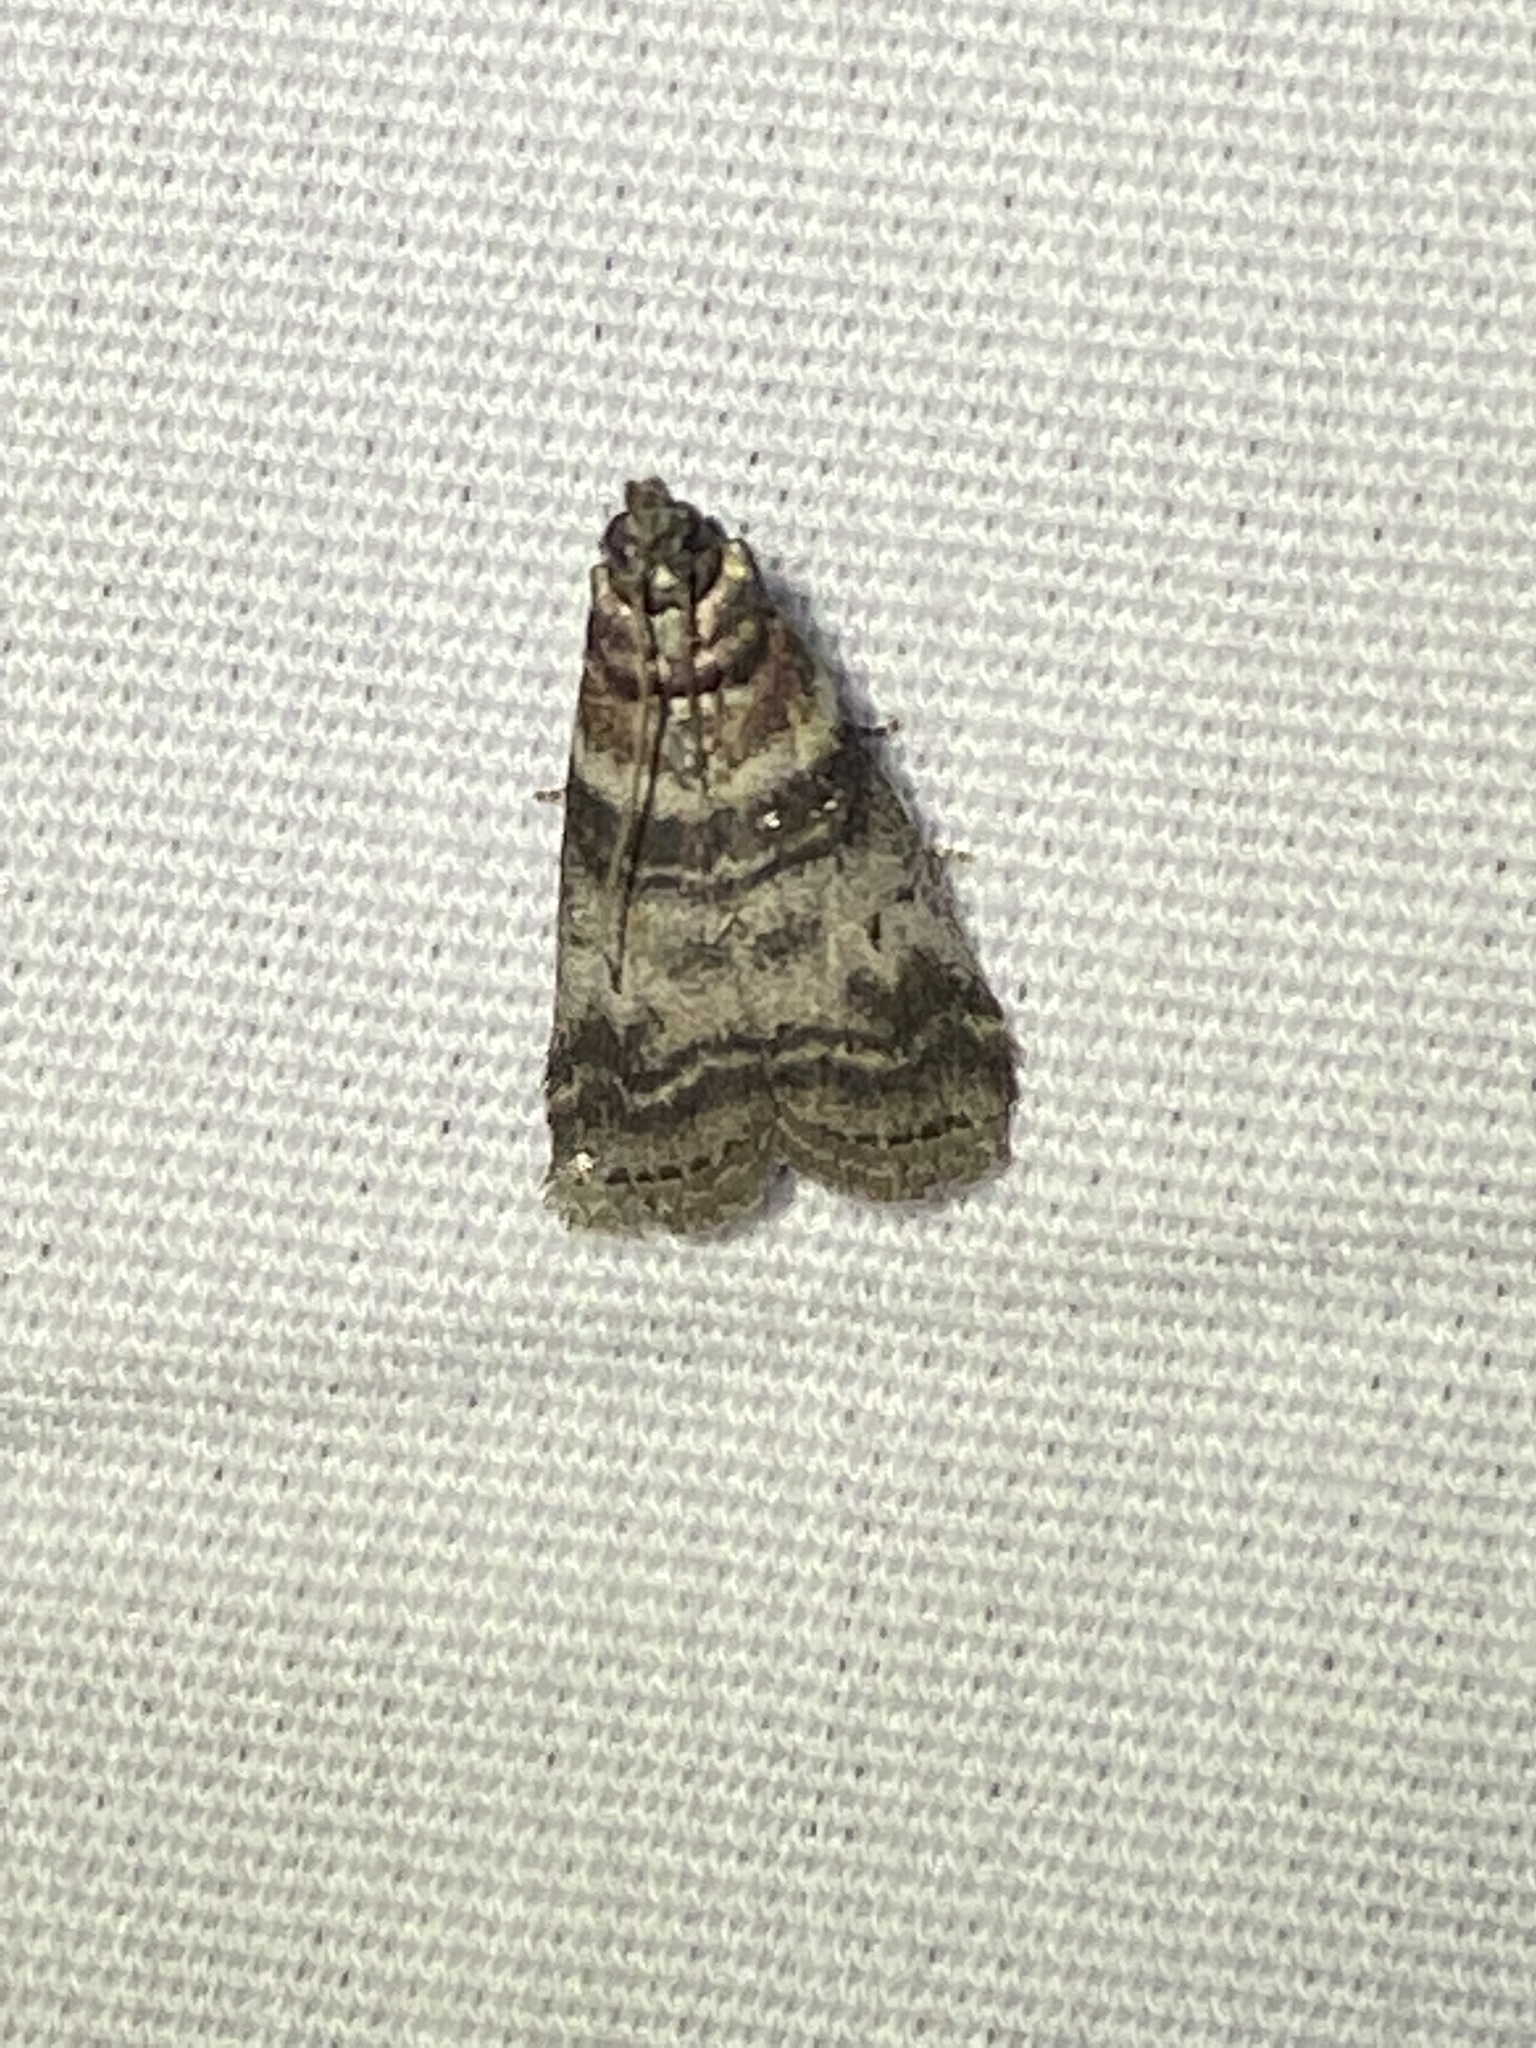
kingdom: Animalia
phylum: Arthropoda
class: Insecta
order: Lepidoptera
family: Pyralidae
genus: Sciota
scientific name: Sciota uvinella
